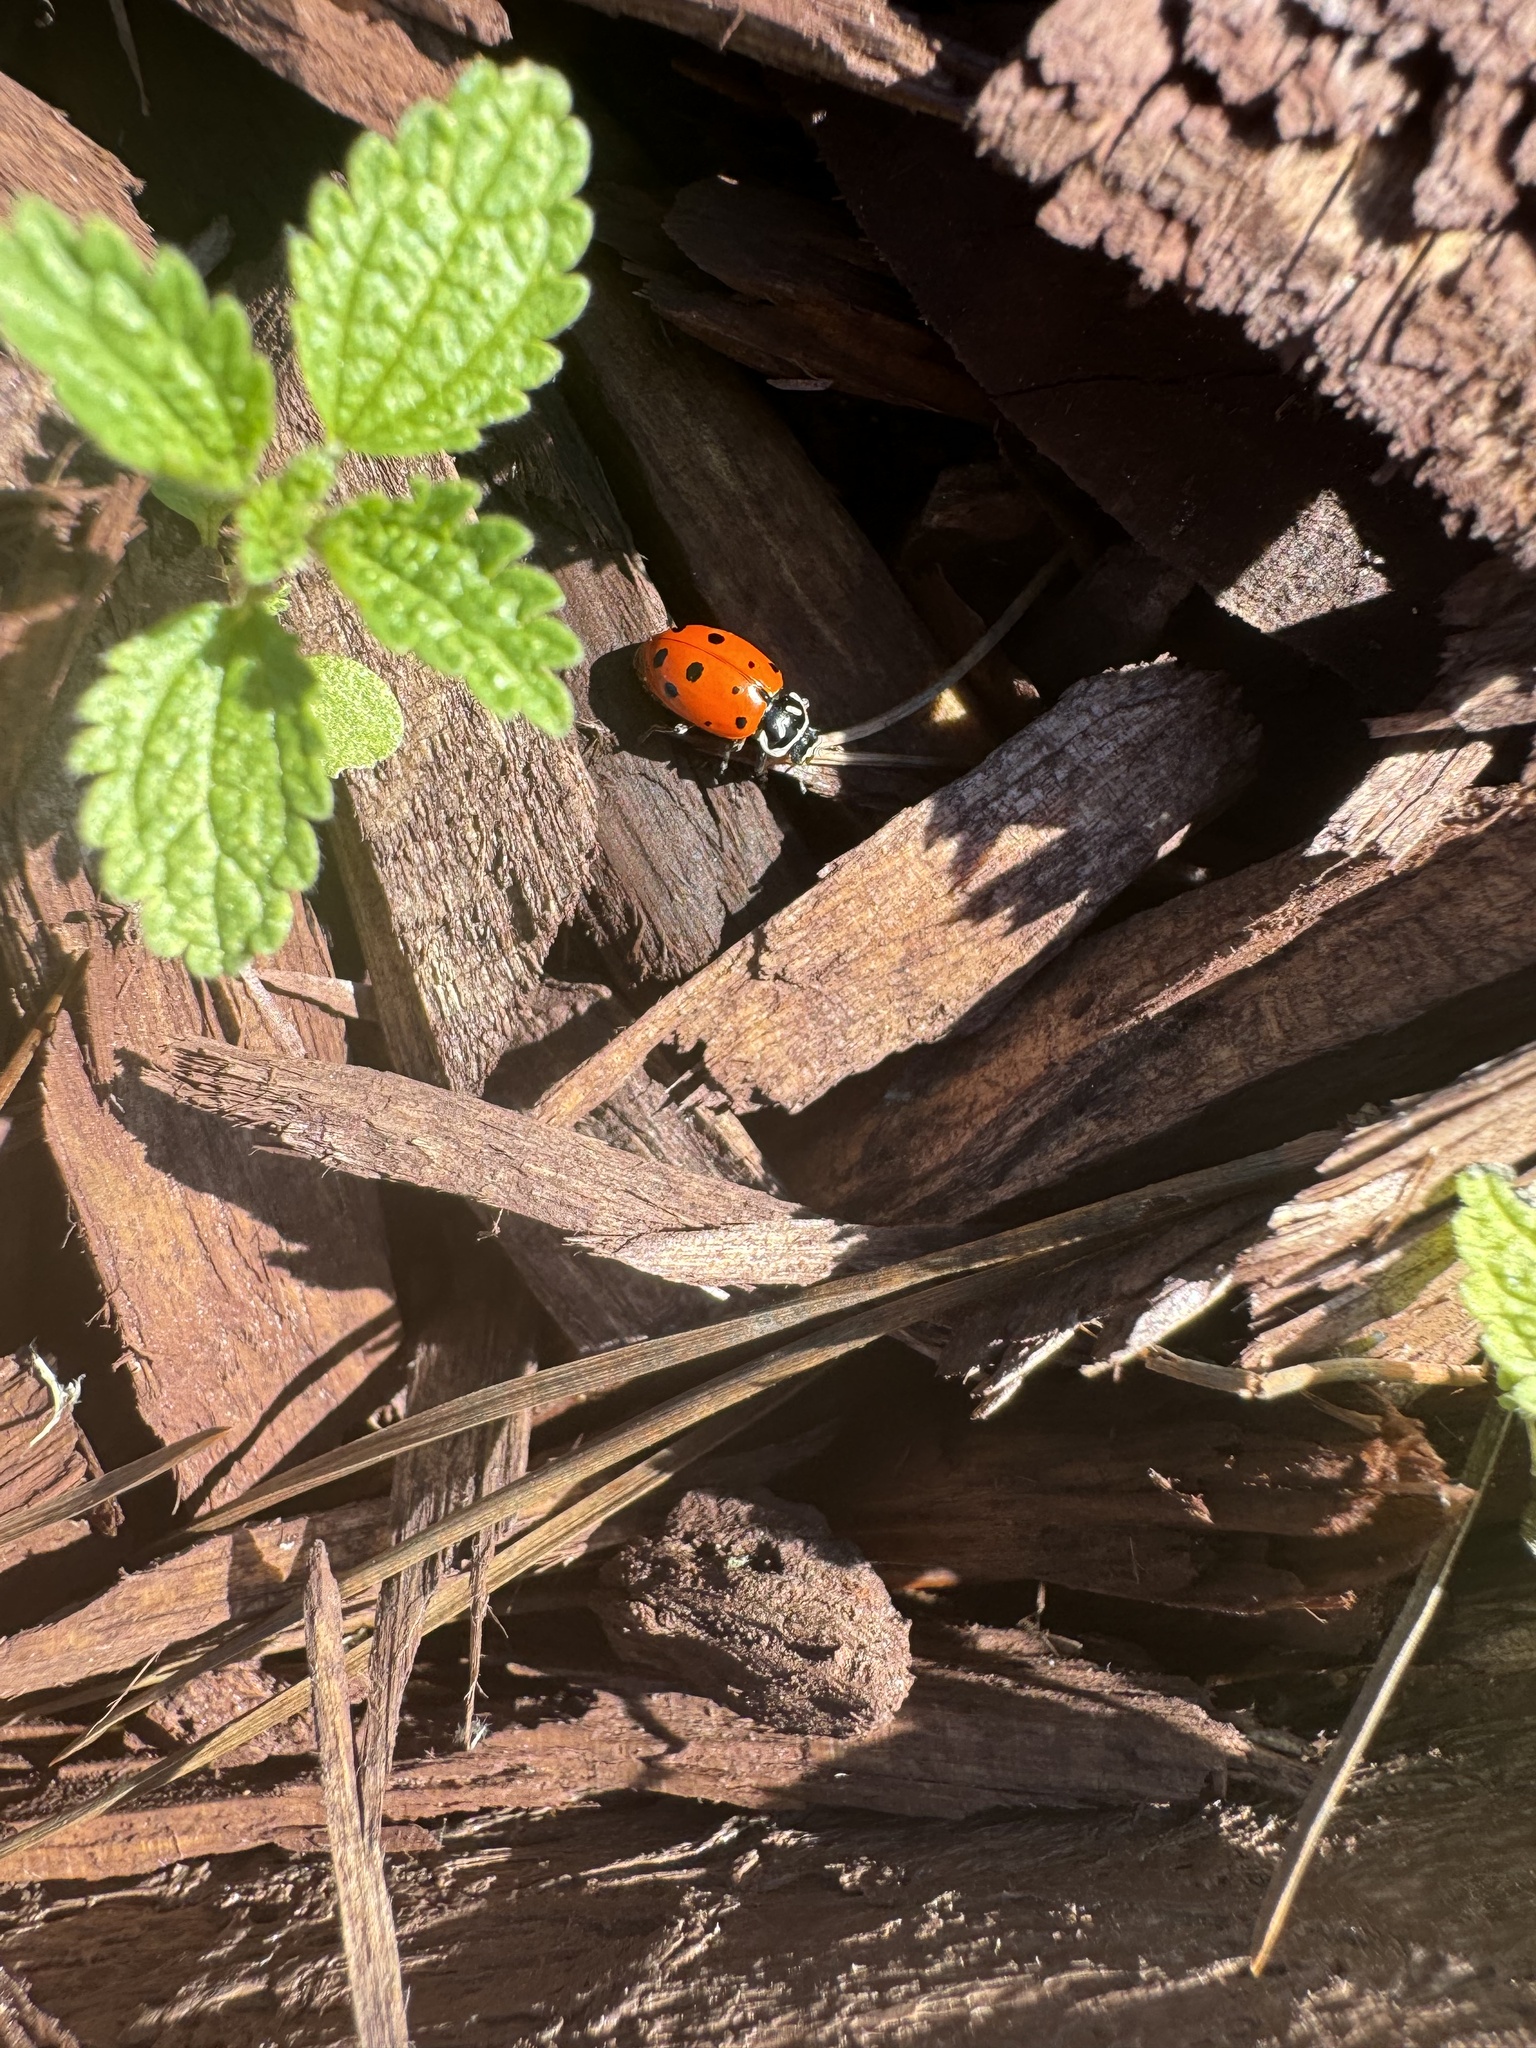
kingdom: Animalia
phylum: Arthropoda
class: Insecta
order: Coleoptera
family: Coccinellidae
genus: Hippodamia
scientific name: Hippodamia convergens
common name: Convergent lady beetle
